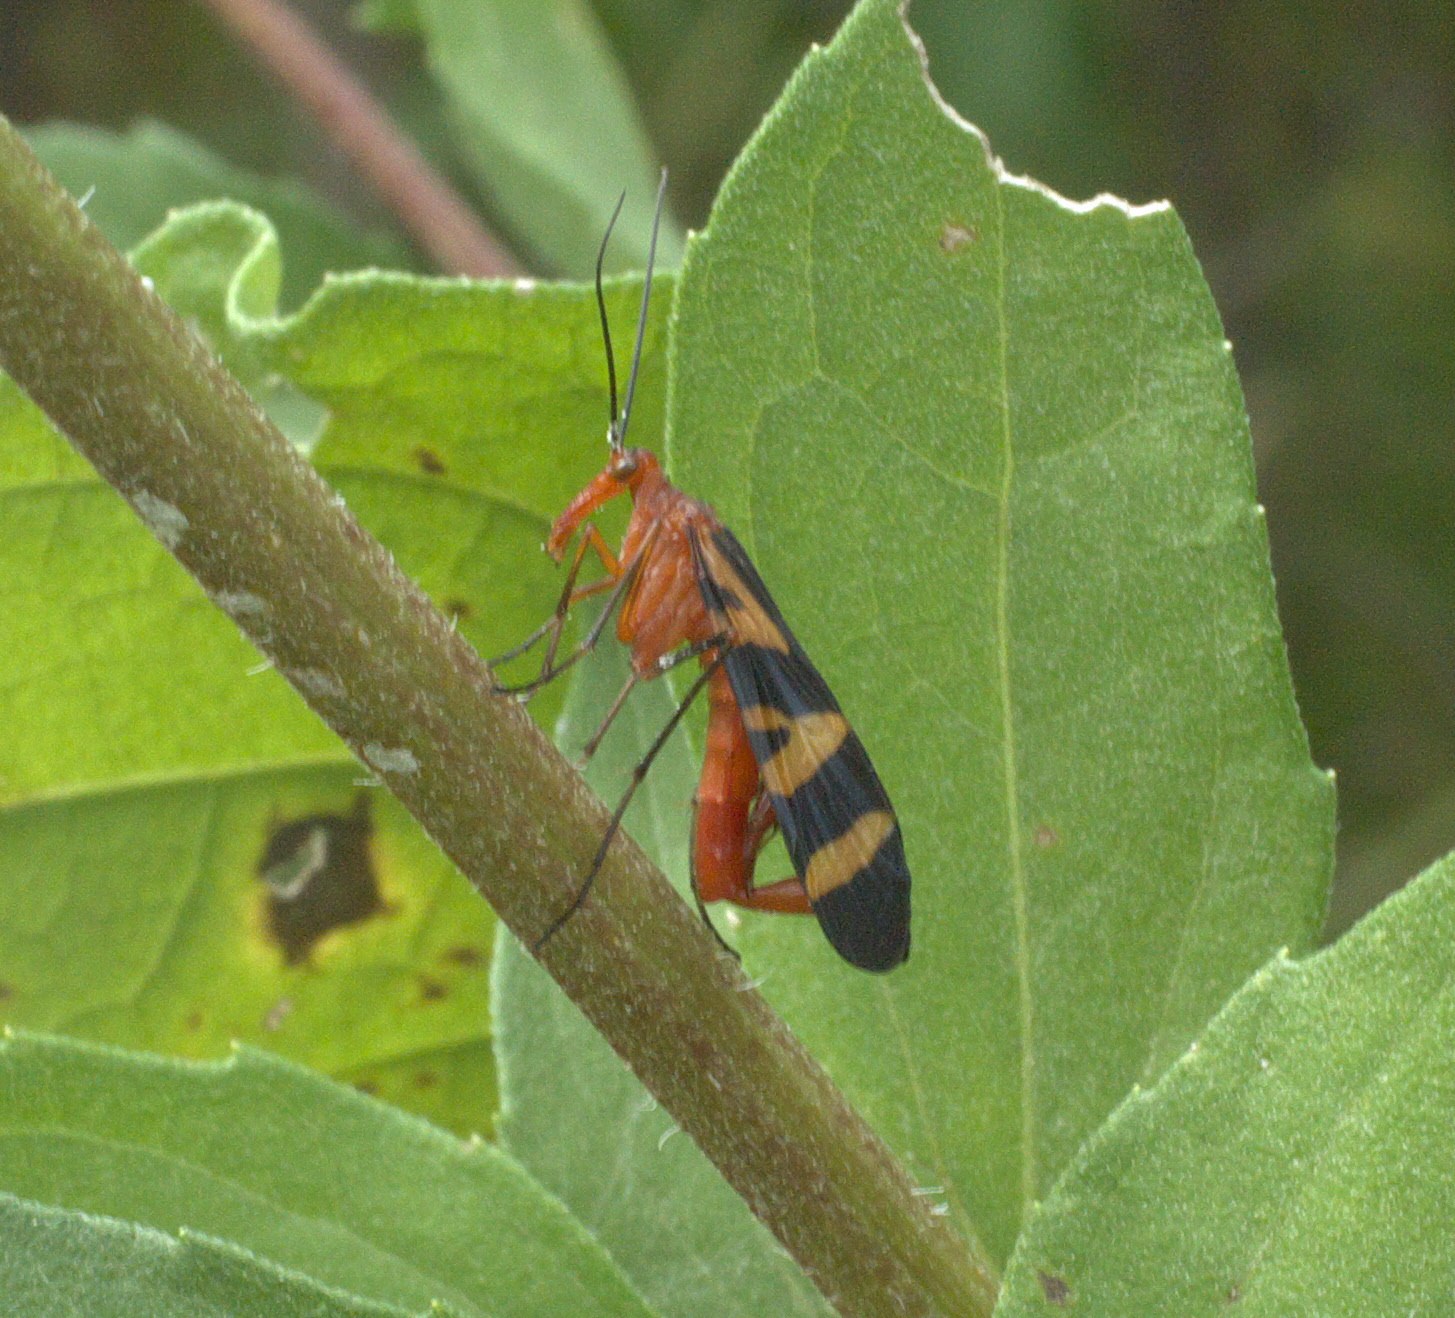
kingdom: Animalia
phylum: Arthropoda
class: Insecta
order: Mecoptera
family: Panorpidae
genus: Panorpa
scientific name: Panorpa nuptialis
